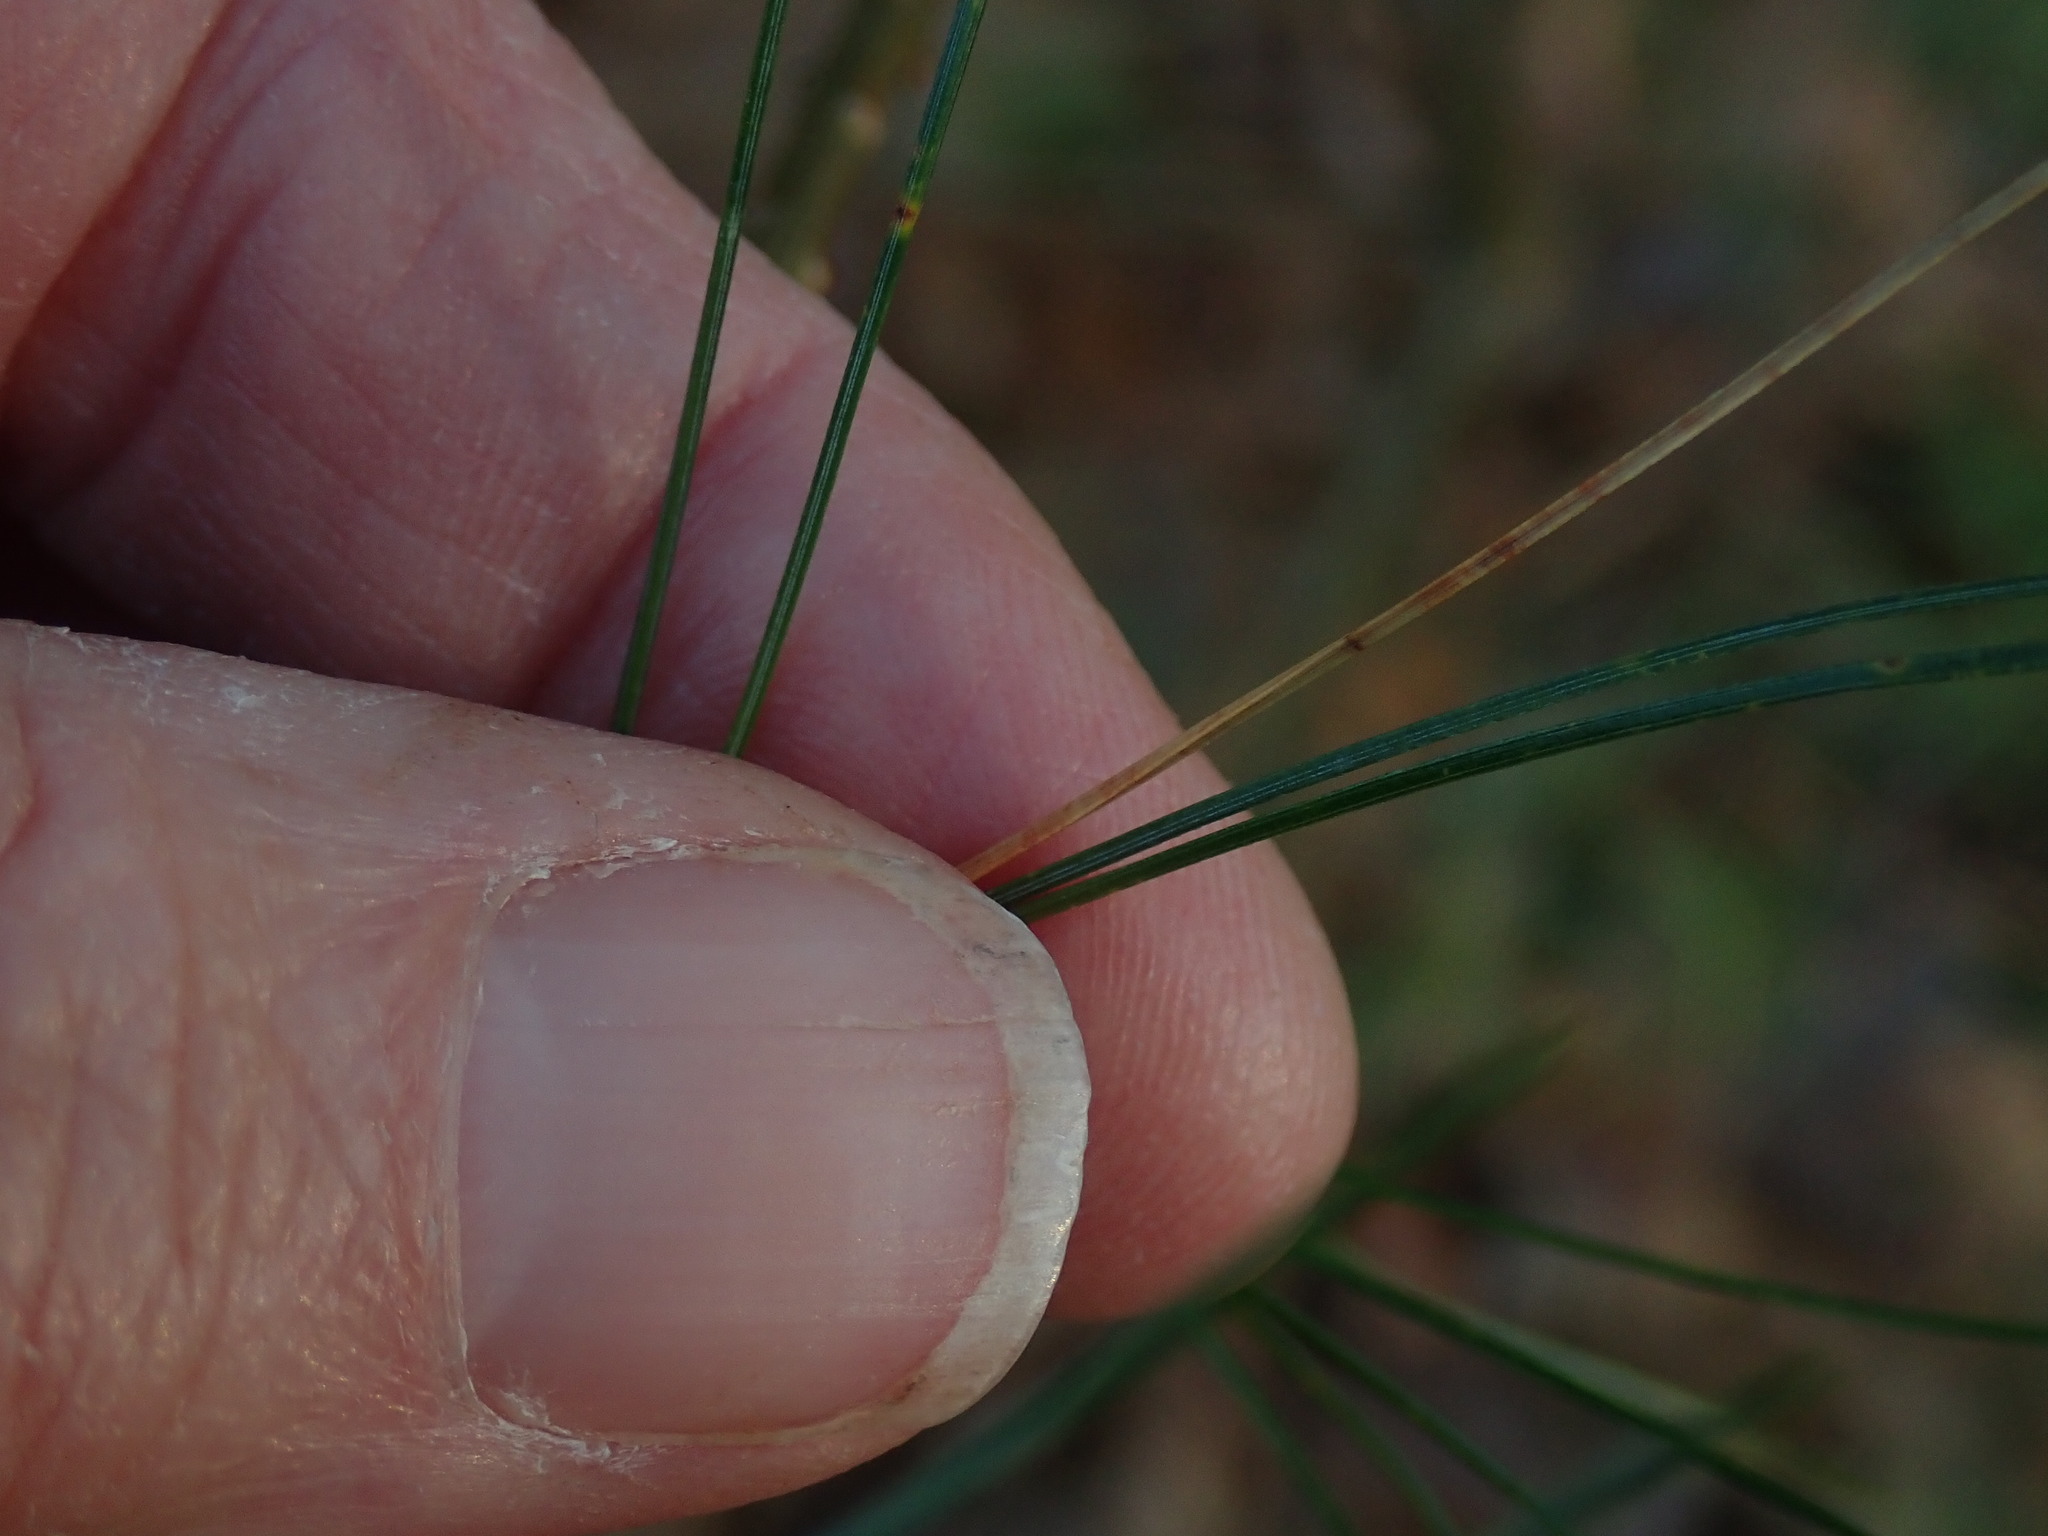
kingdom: Plantae
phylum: Tracheophyta
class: Pinopsida
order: Pinales
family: Pinaceae
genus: Pinus
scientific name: Pinus strobus
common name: Weymouth pine
